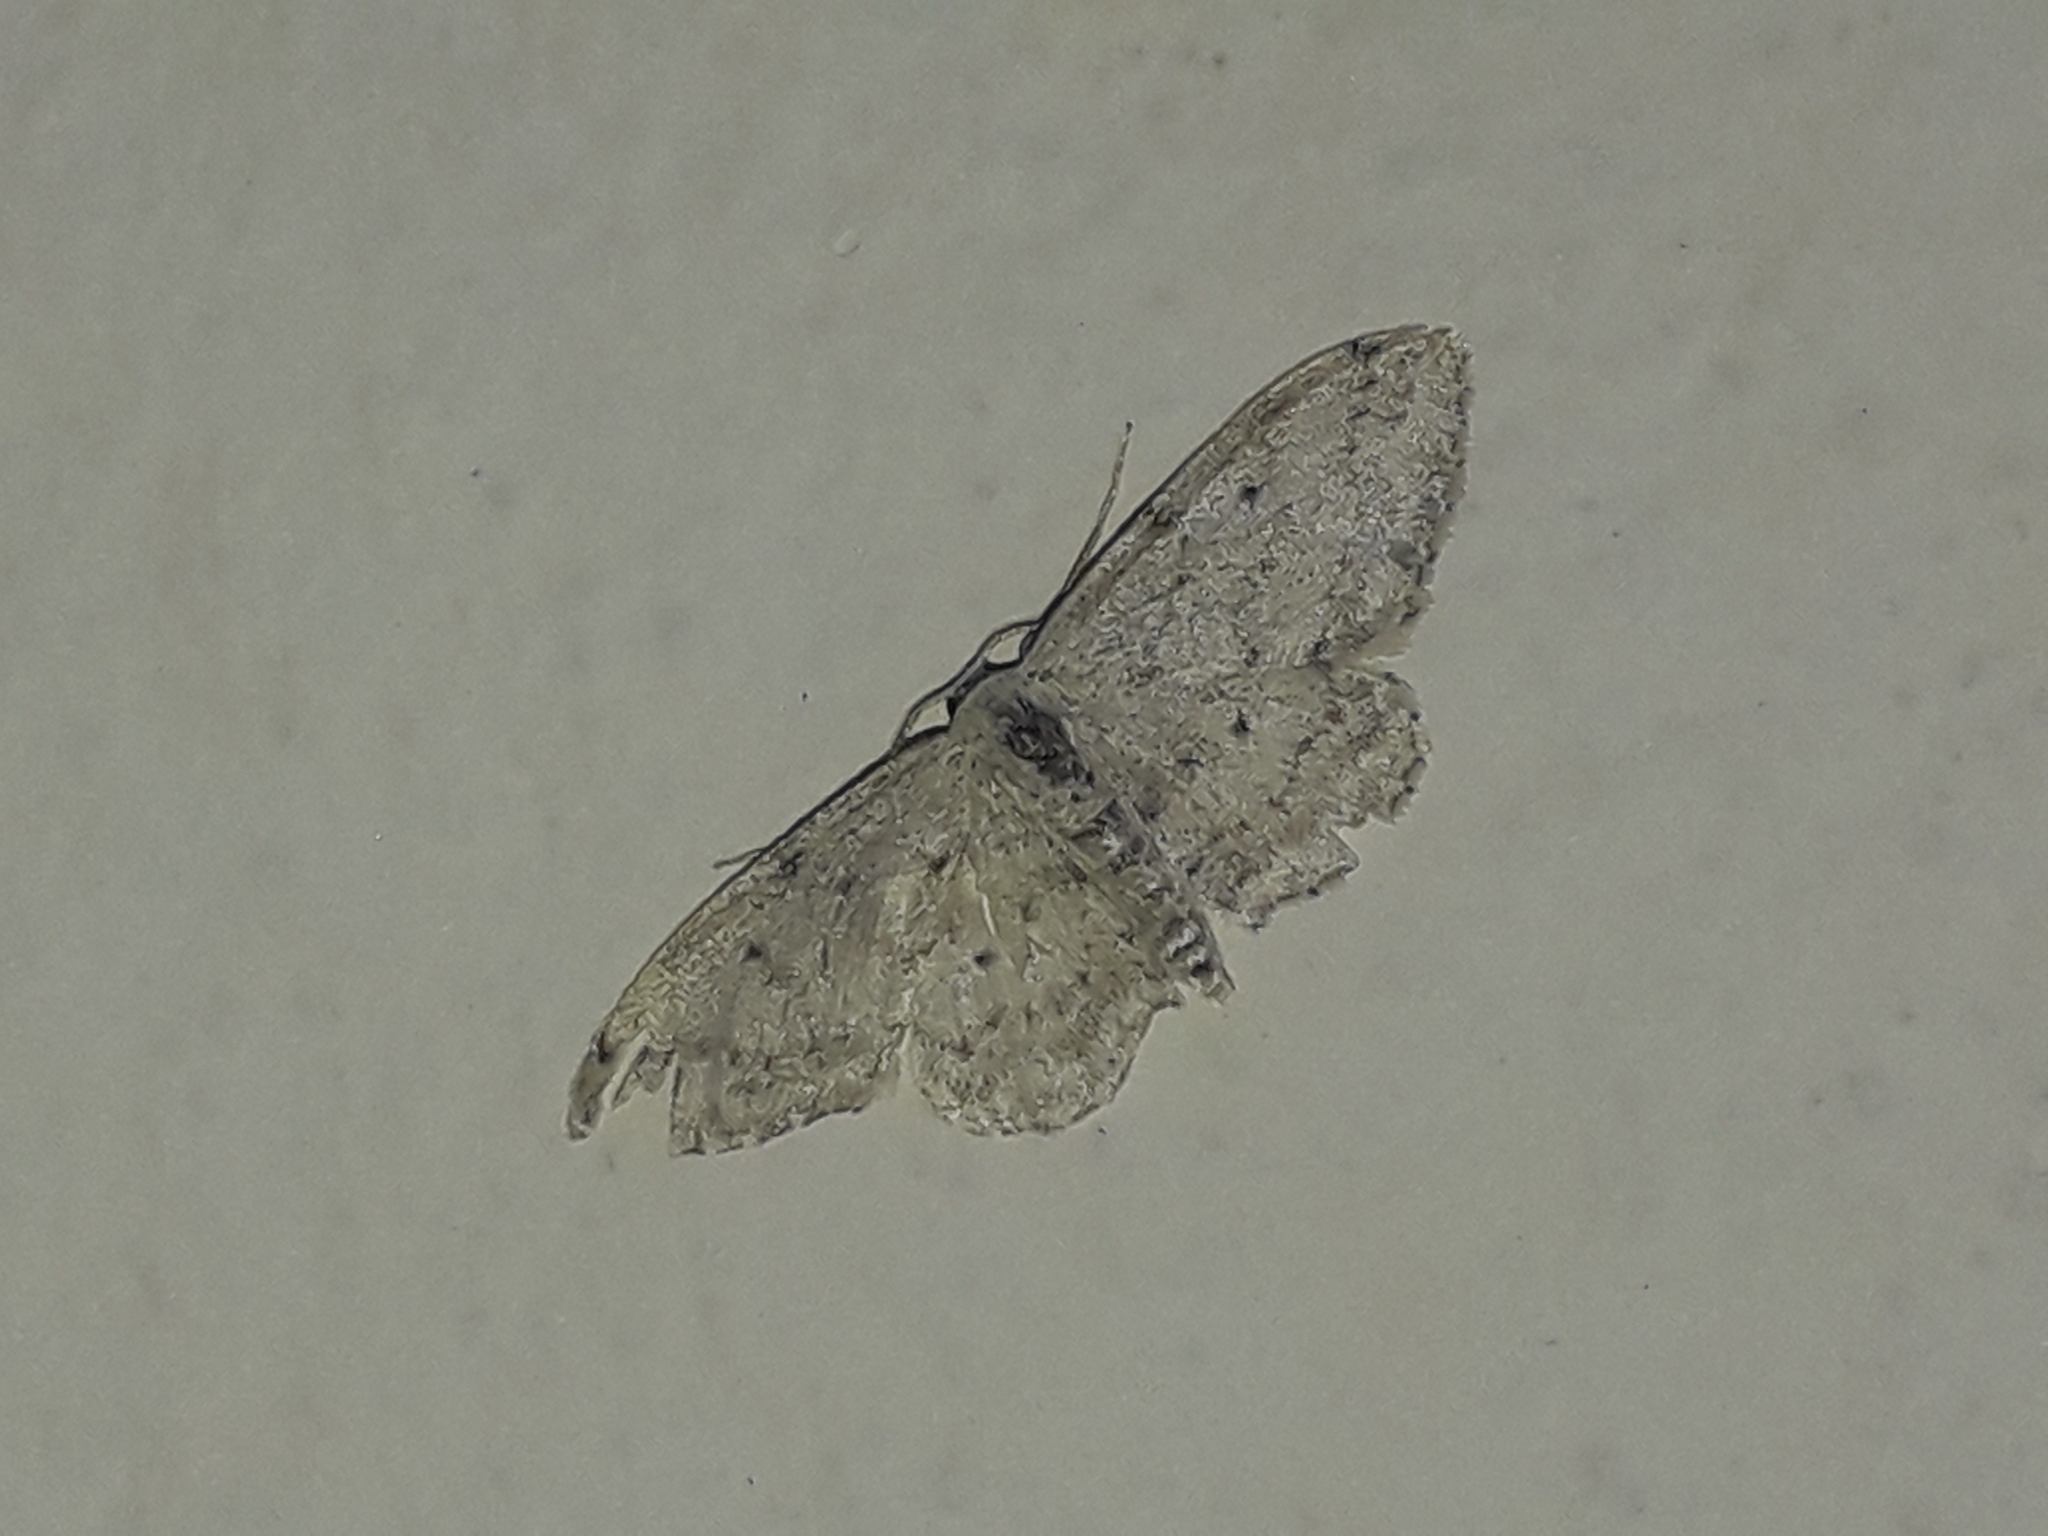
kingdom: Animalia
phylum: Arthropoda
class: Insecta
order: Lepidoptera
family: Geometridae
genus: Idaea
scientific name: Idaea seriata
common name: Small dusty wave
